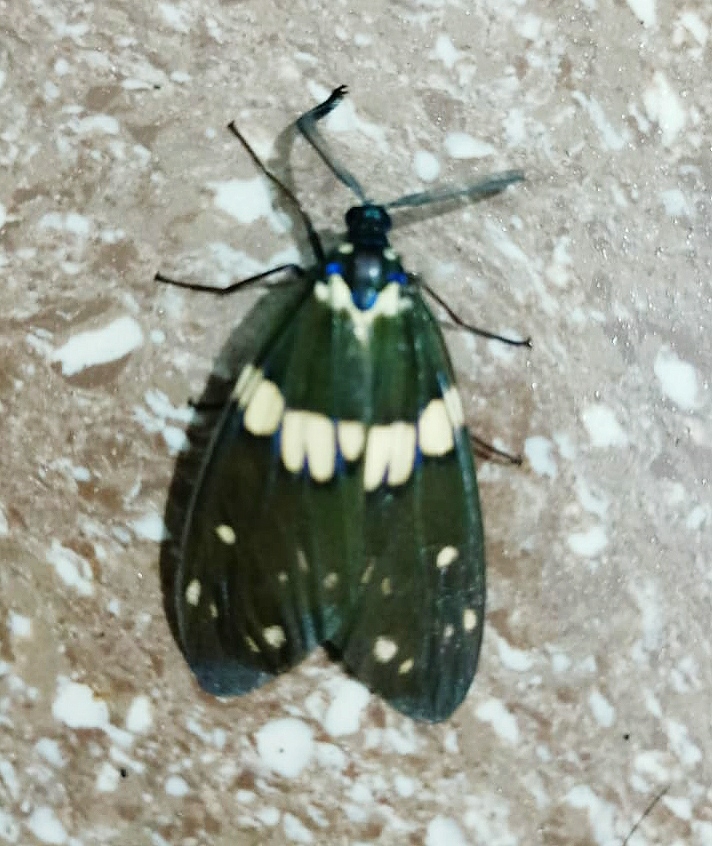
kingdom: Animalia
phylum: Arthropoda
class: Insecta
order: Lepidoptera
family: Zygaenidae
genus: Eterusia
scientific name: Eterusia aedea
